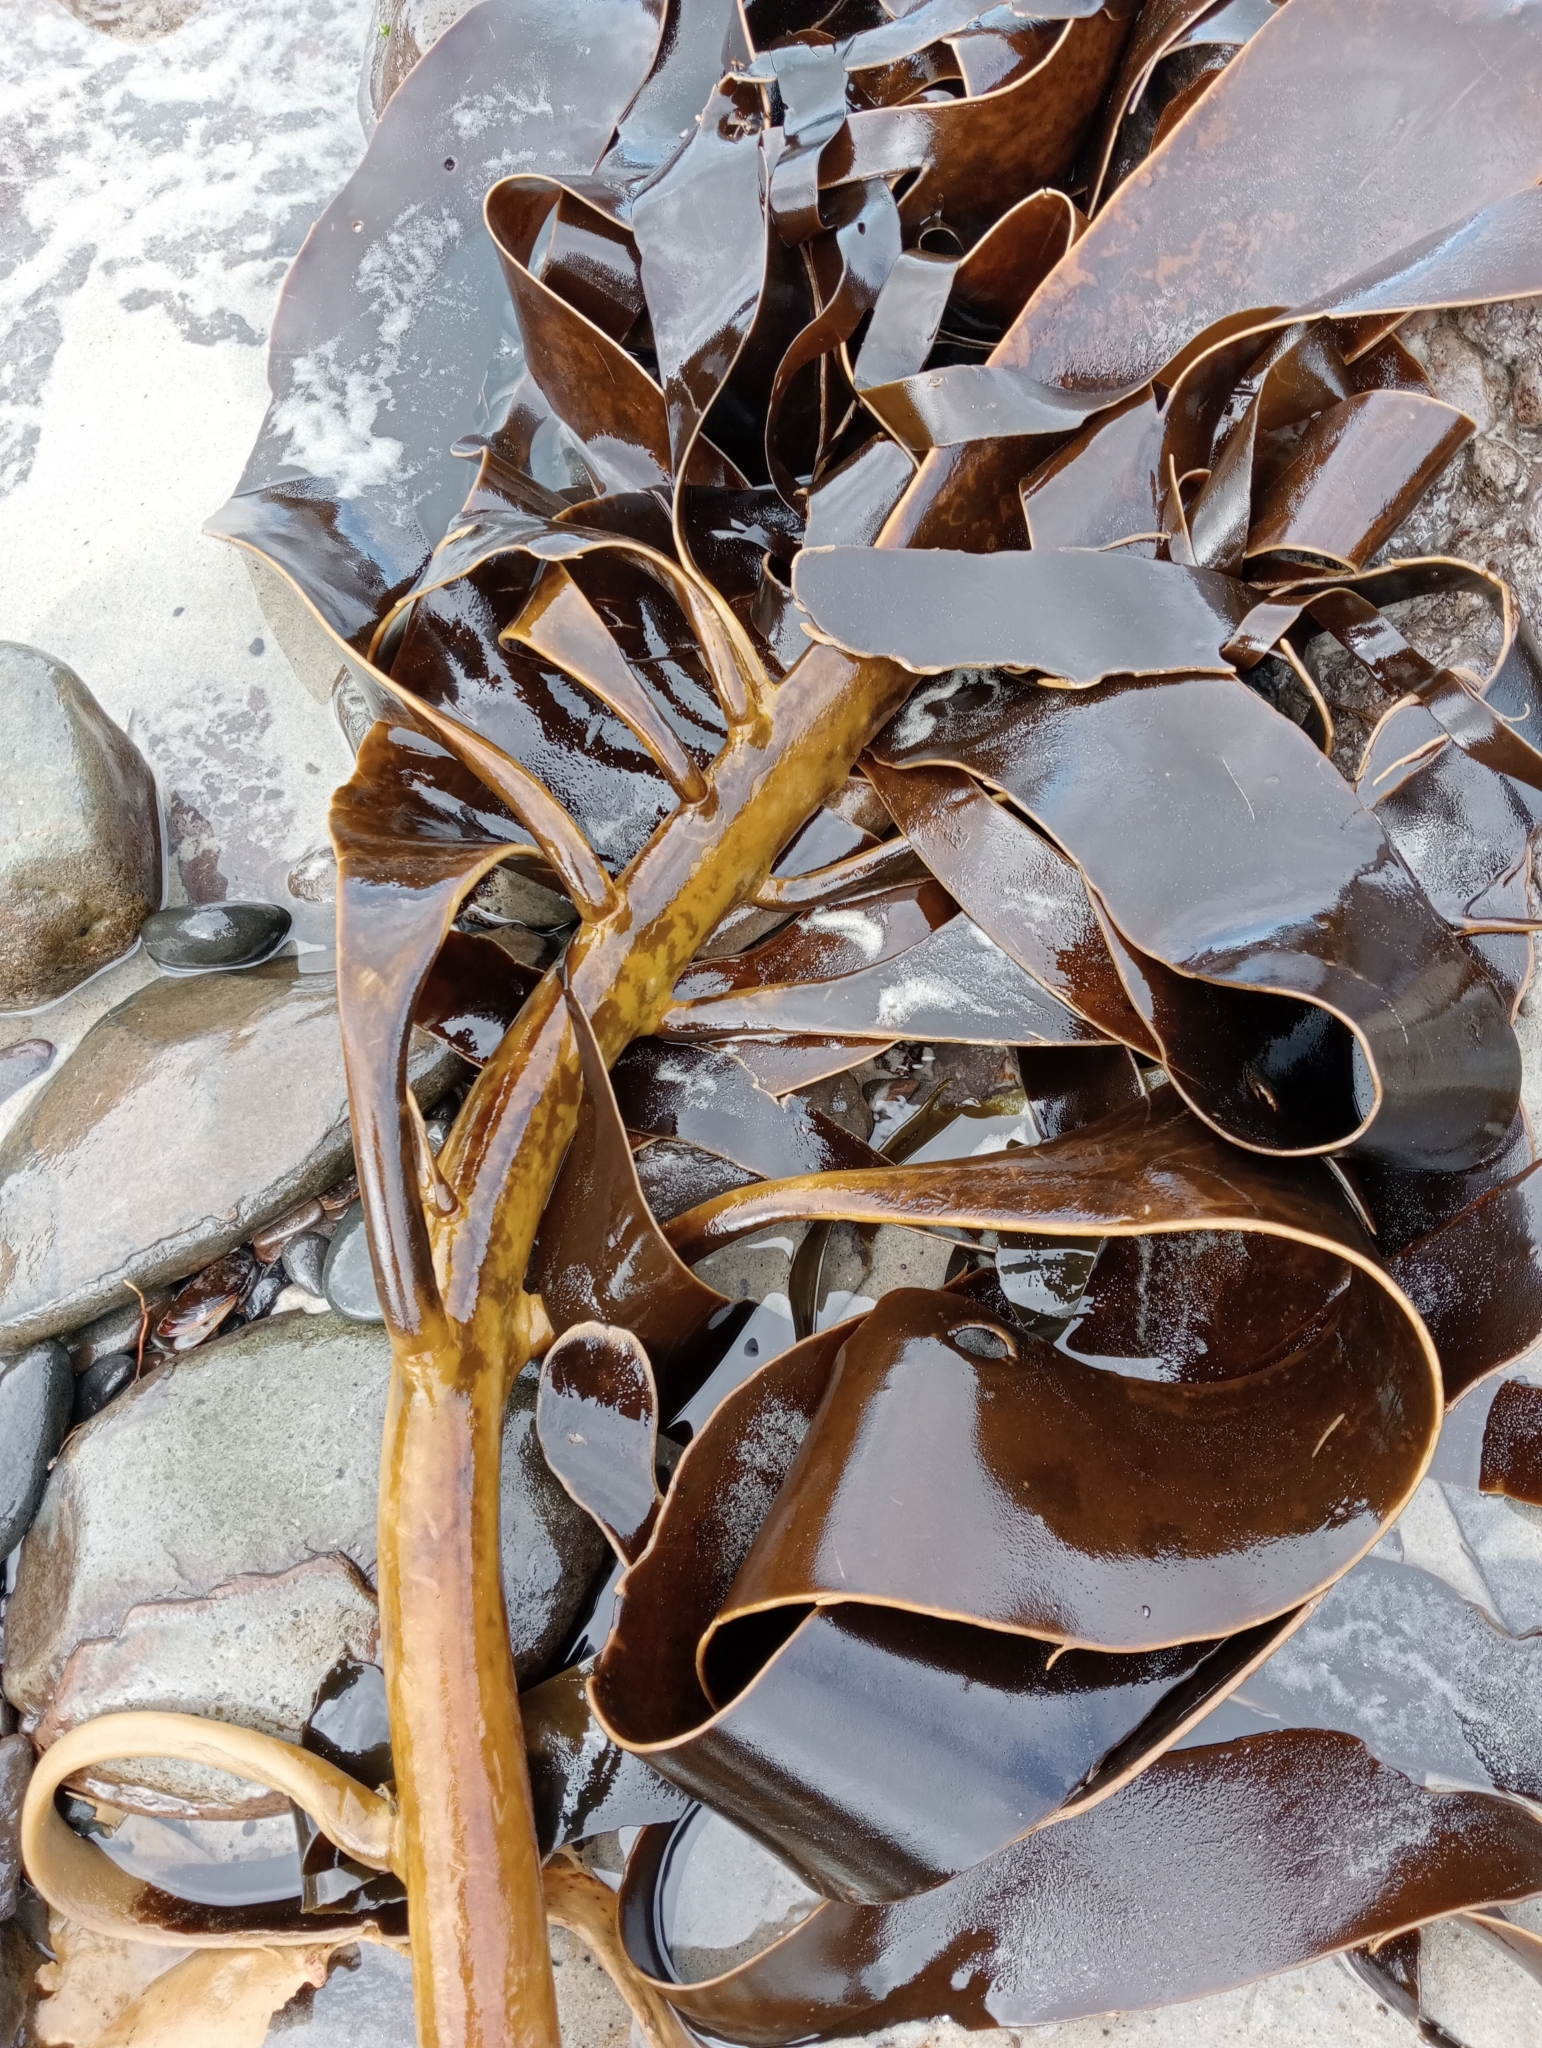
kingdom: Chromista
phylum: Ochrophyta
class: Phaeophyceae
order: Fucales
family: Durvillaeaceae
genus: Durvillaea
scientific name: Durvillaea willana
